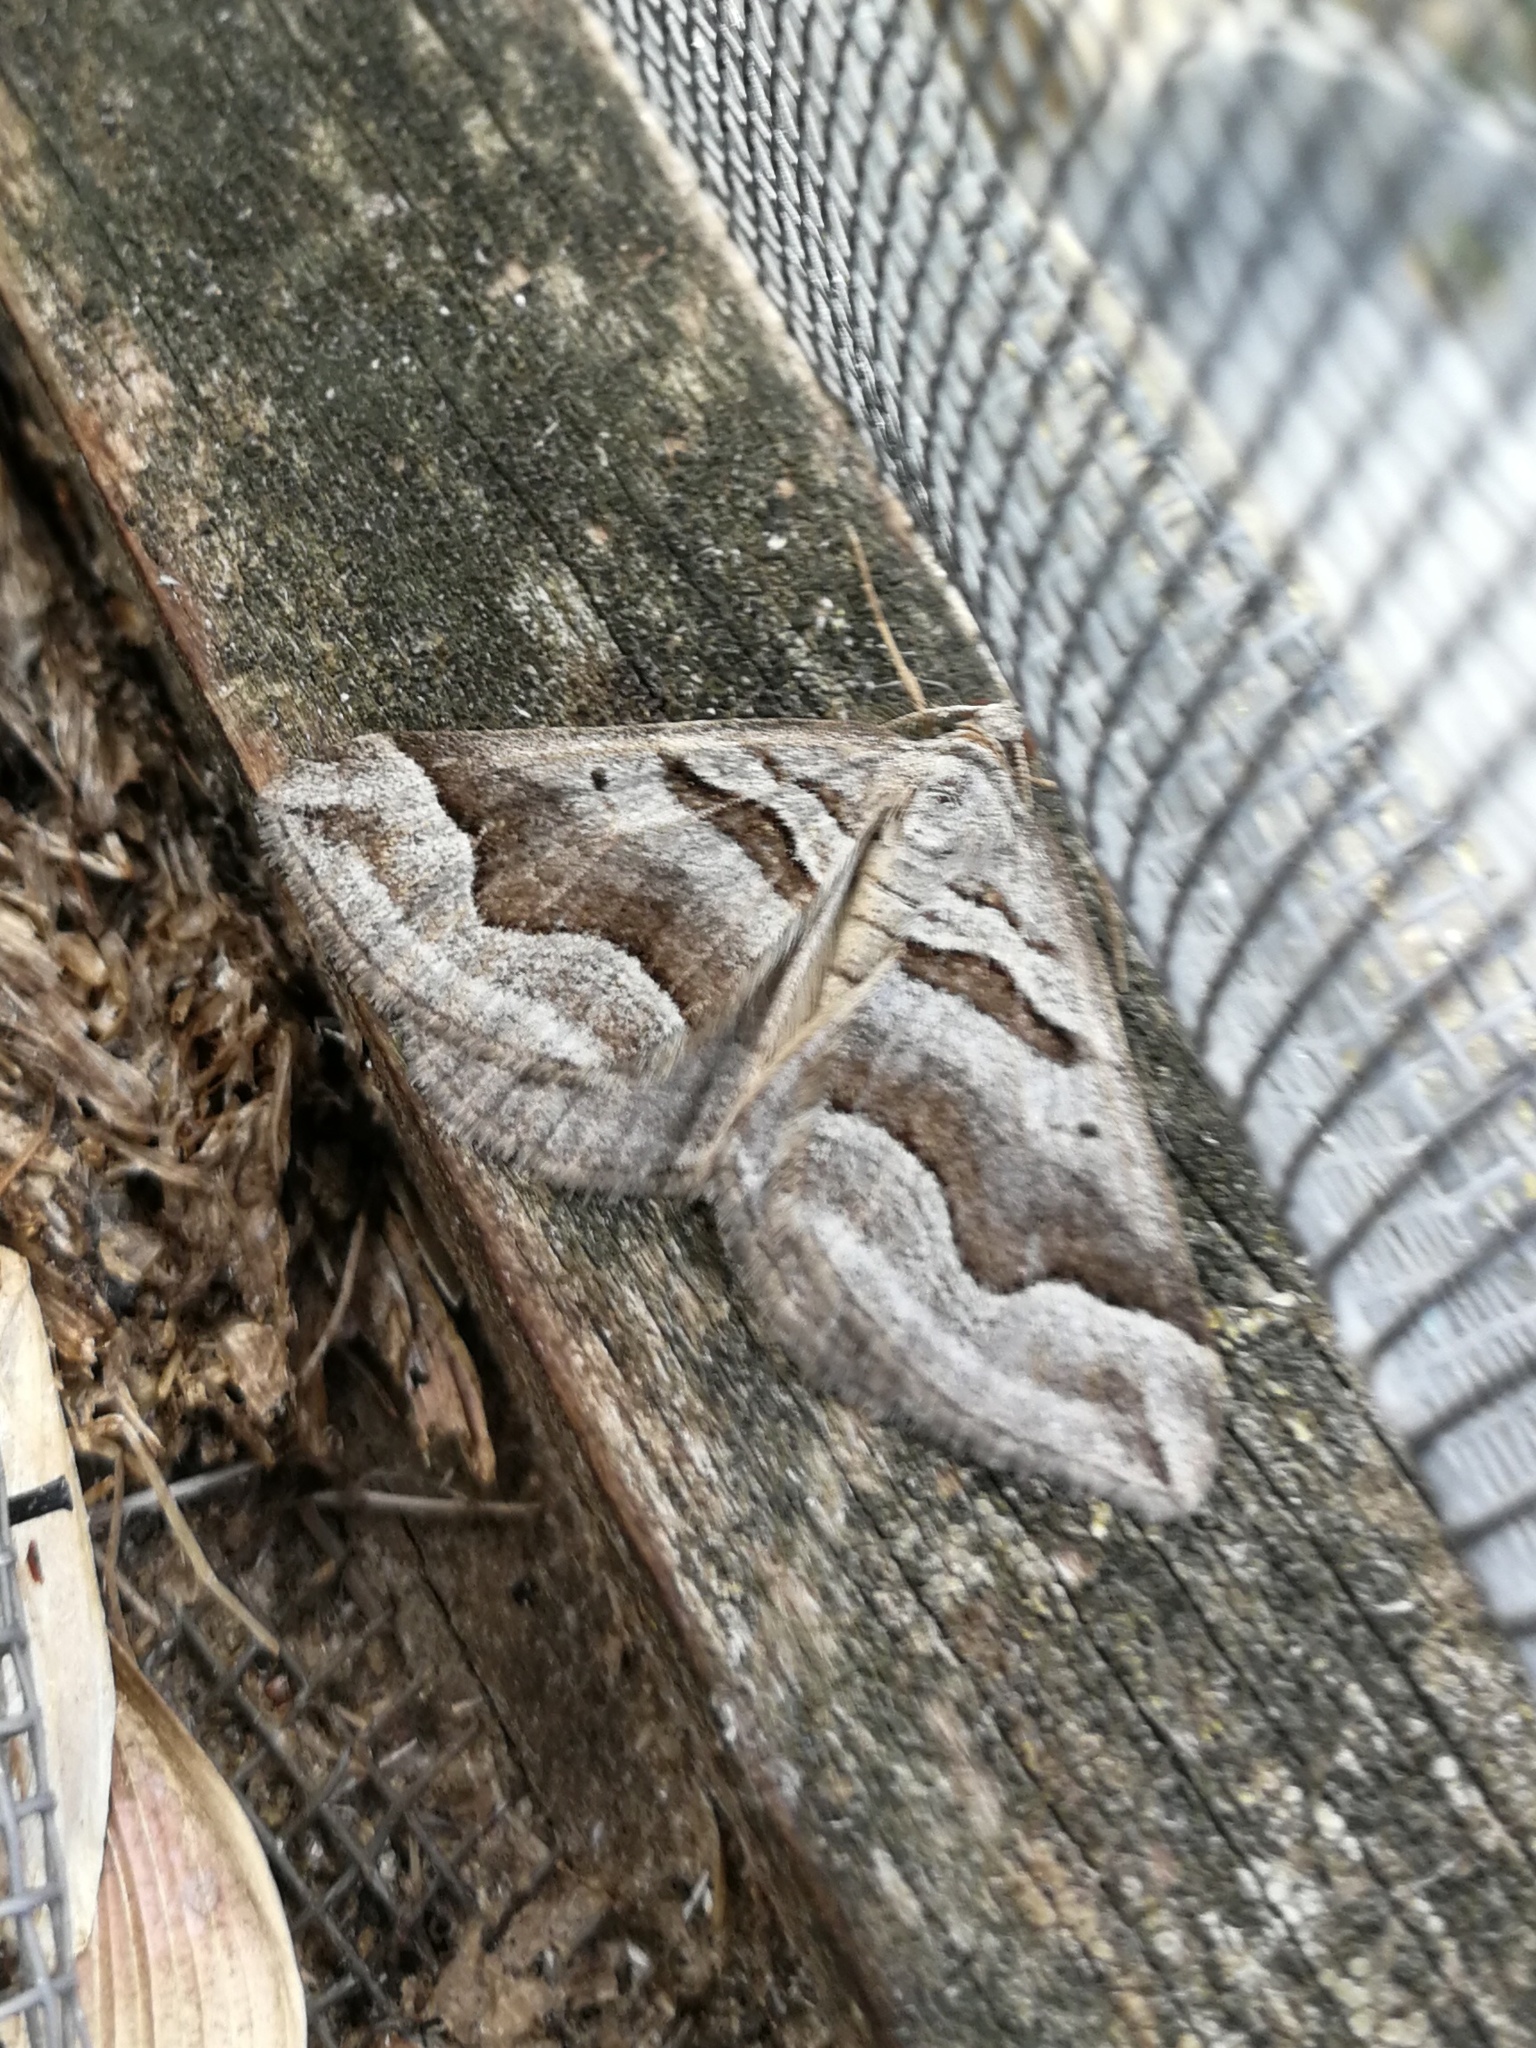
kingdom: Animalia
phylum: Arthropoda
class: Insecta
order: Lepidoptera
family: Geometridae
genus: Scotopteryx
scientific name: Scotopteryx peribolata
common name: Spanish carpet
